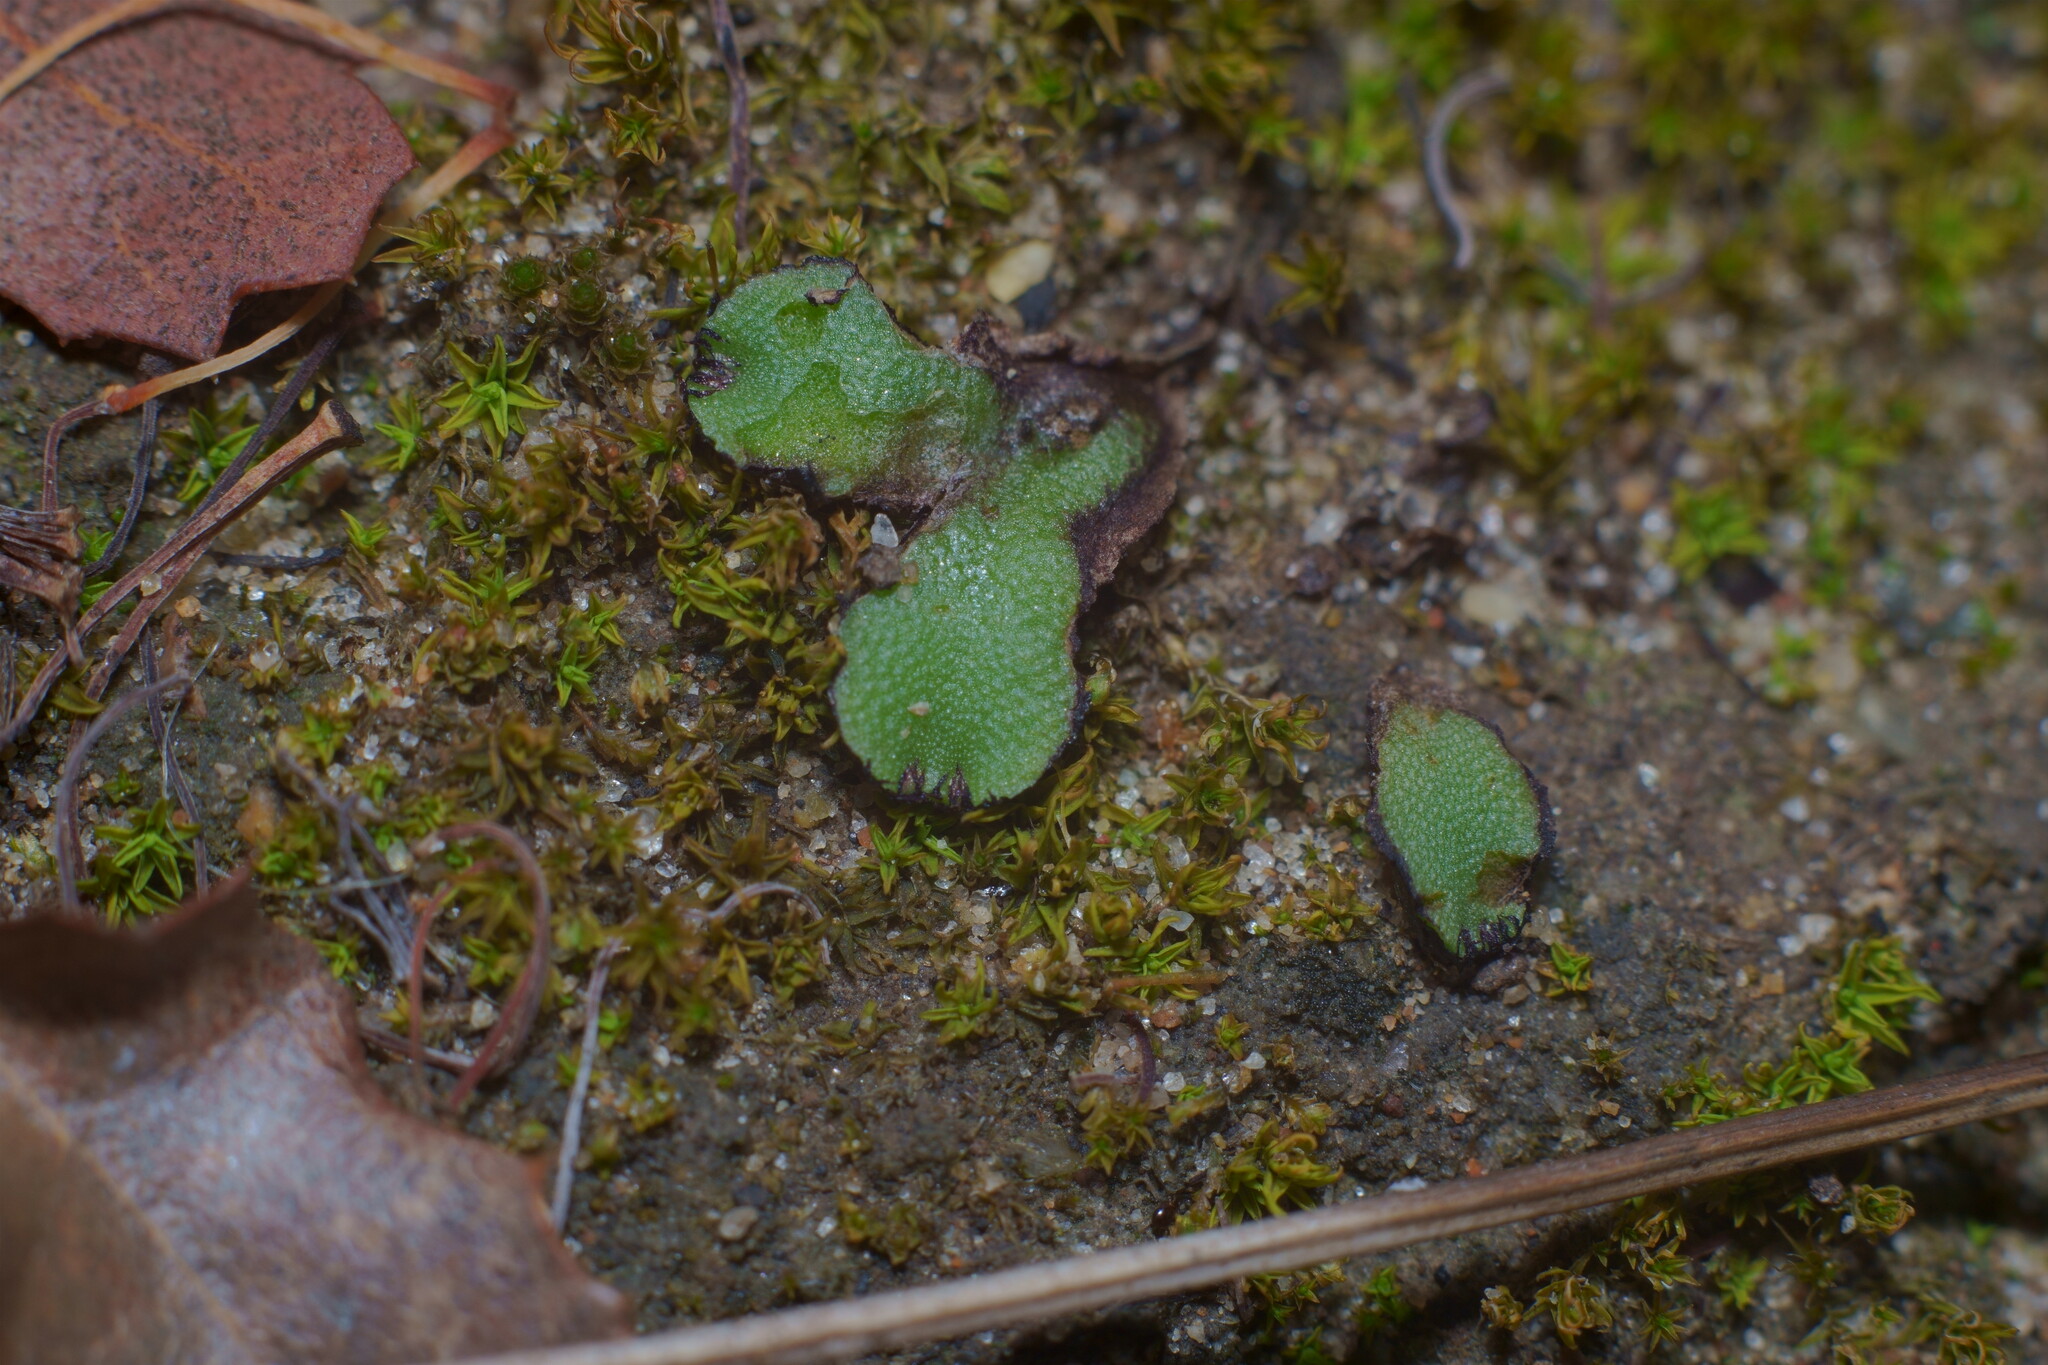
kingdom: Plantae
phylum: Marchantiophyta
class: Marchantiopsida
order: Marchantiales
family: Aytoniaceae
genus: Asterella
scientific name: Asterella californica
